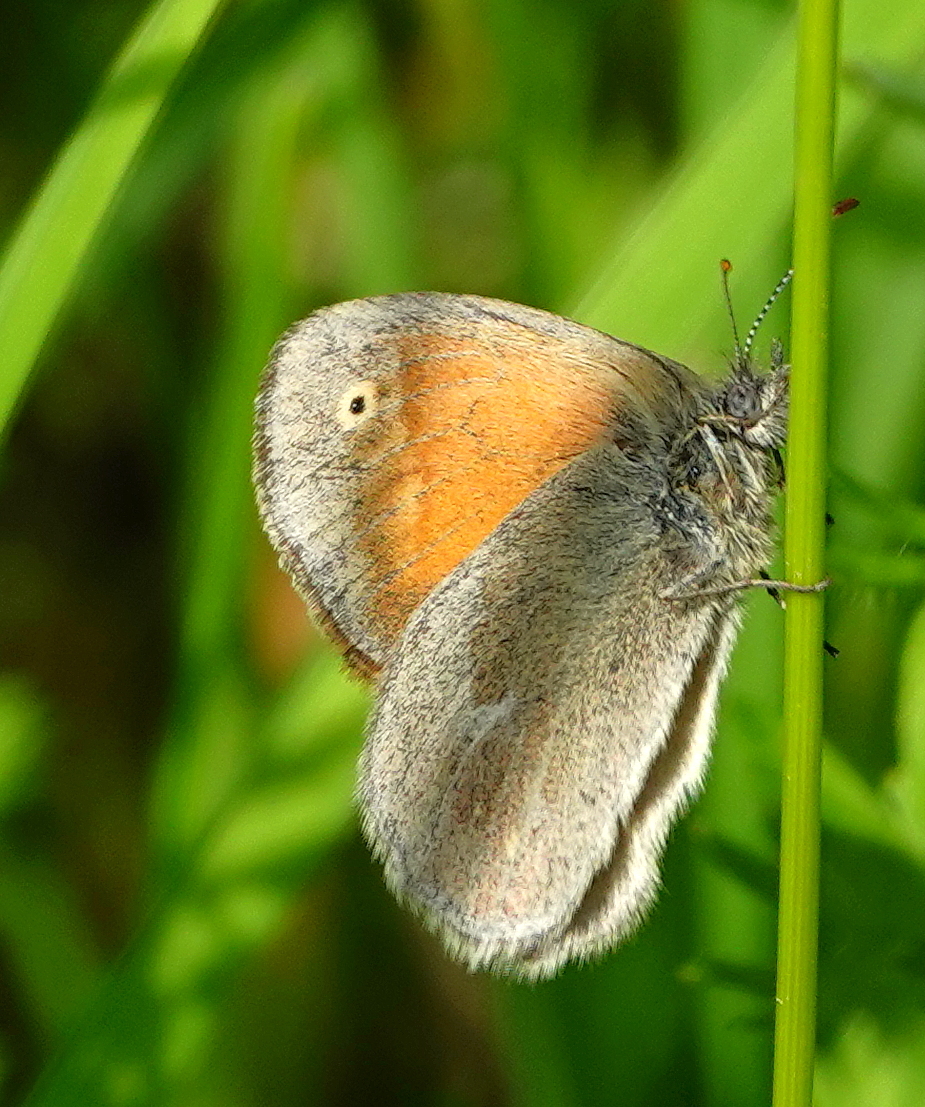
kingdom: Animalia
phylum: Arthropoda
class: Insecta
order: Lepidoptera
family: Nymphalidae
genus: Coenonympha
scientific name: Coenonympha california
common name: Common ringlet
